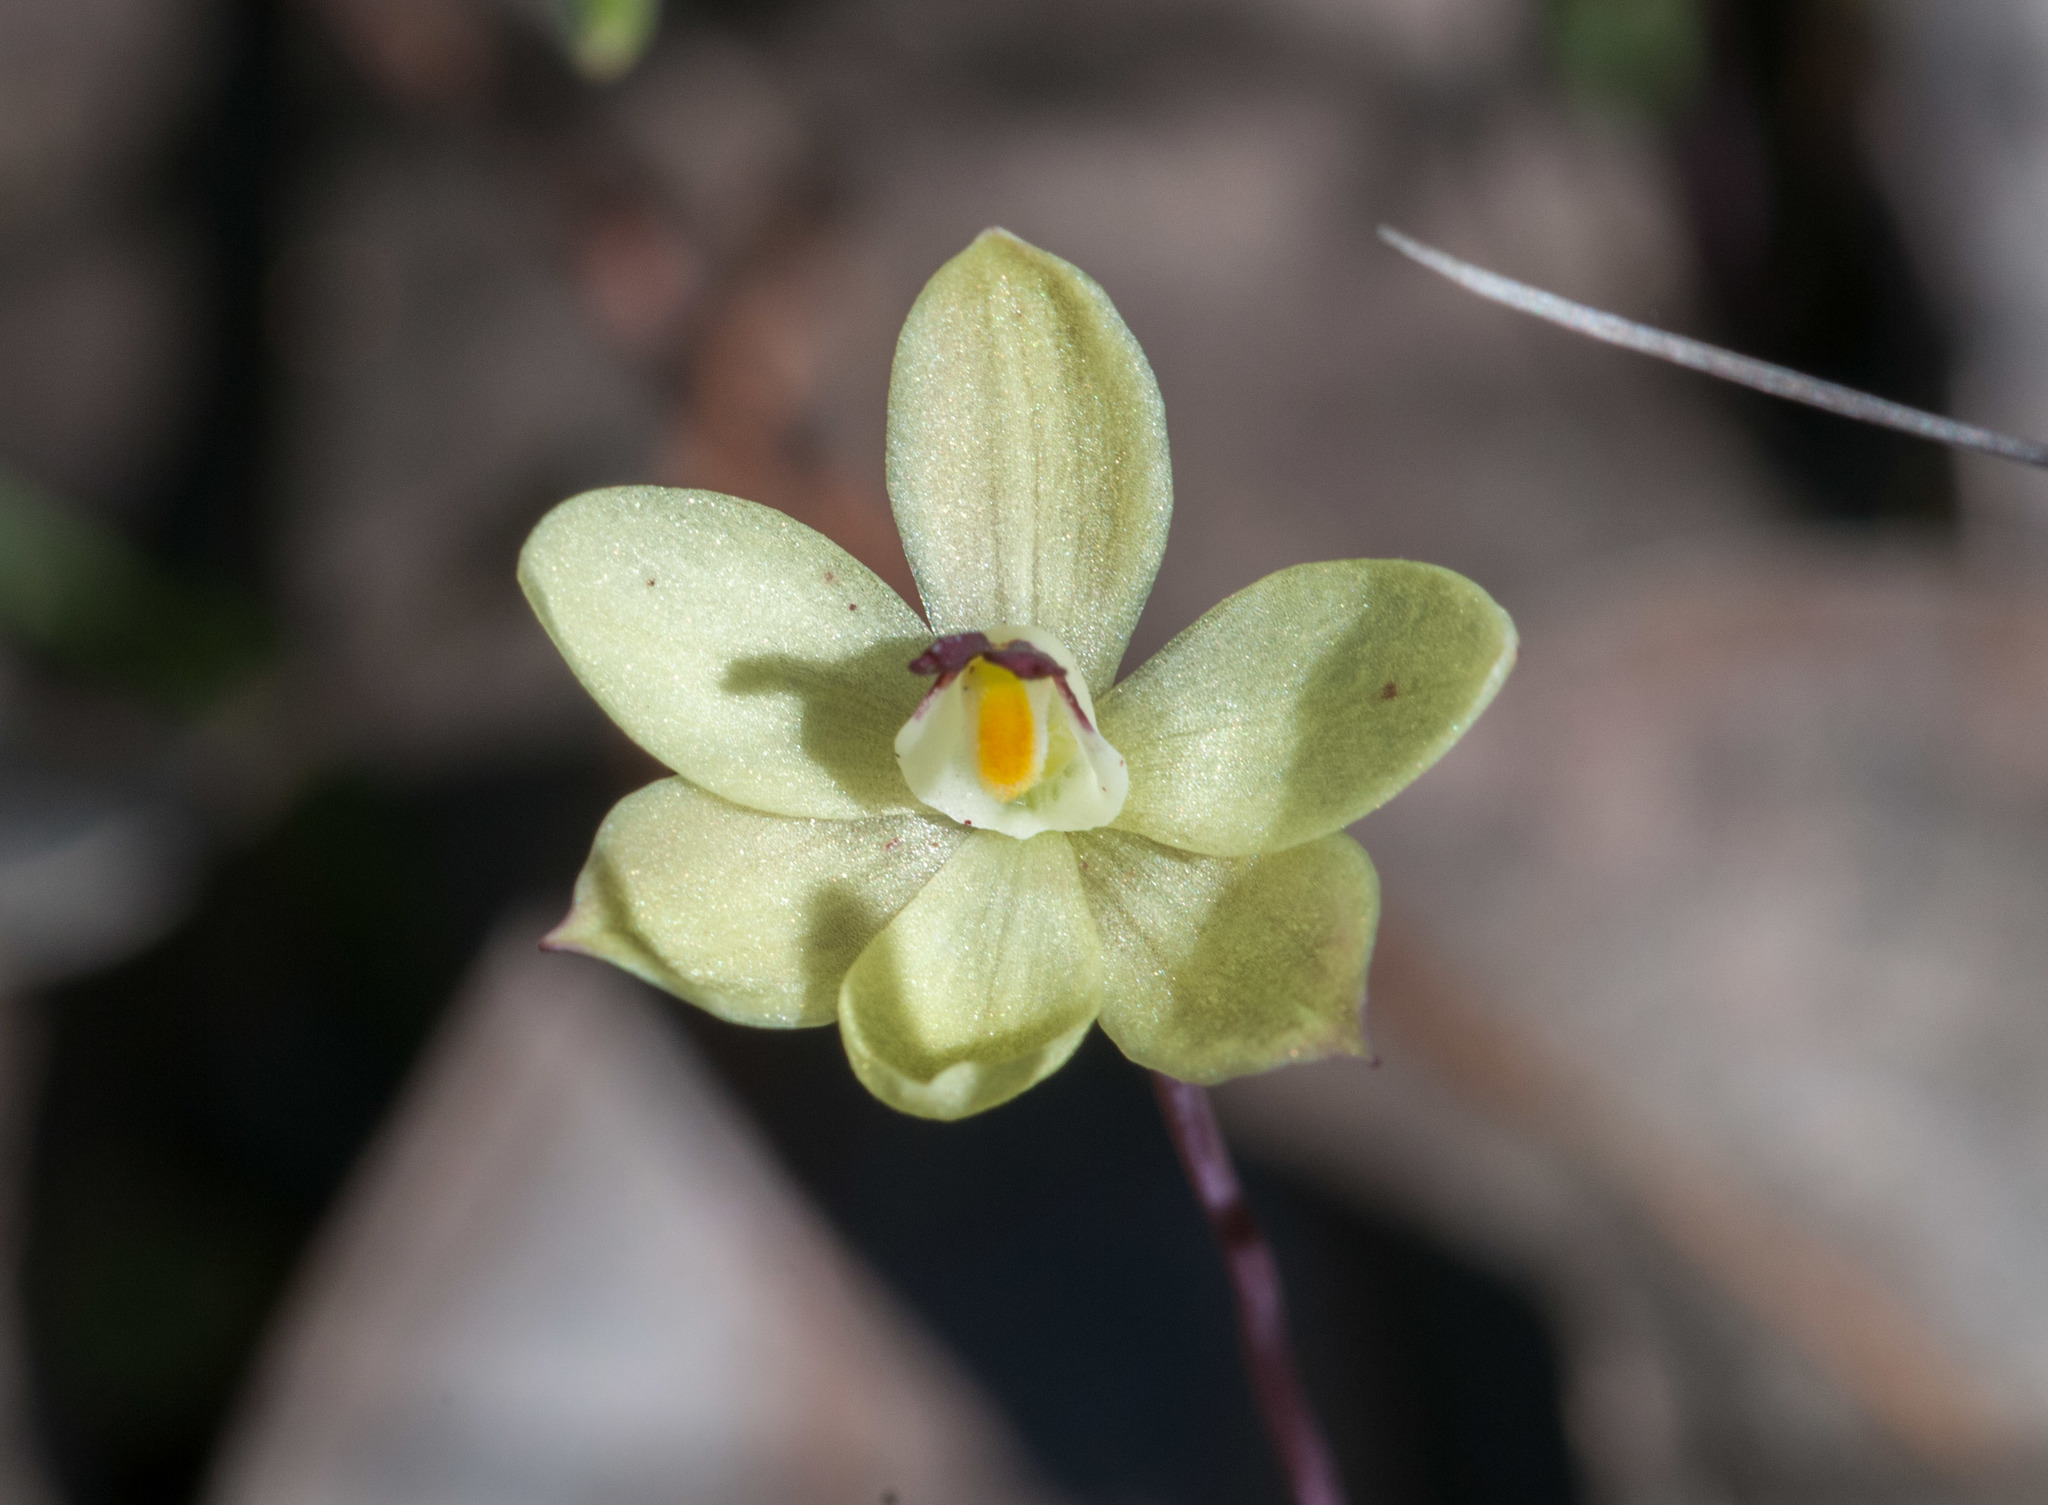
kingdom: Plantae
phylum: Tracheophyta
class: Liliopsida
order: Asparagales
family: Orchidaceae
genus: Thelymitra
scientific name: Thelymitra antennifera
